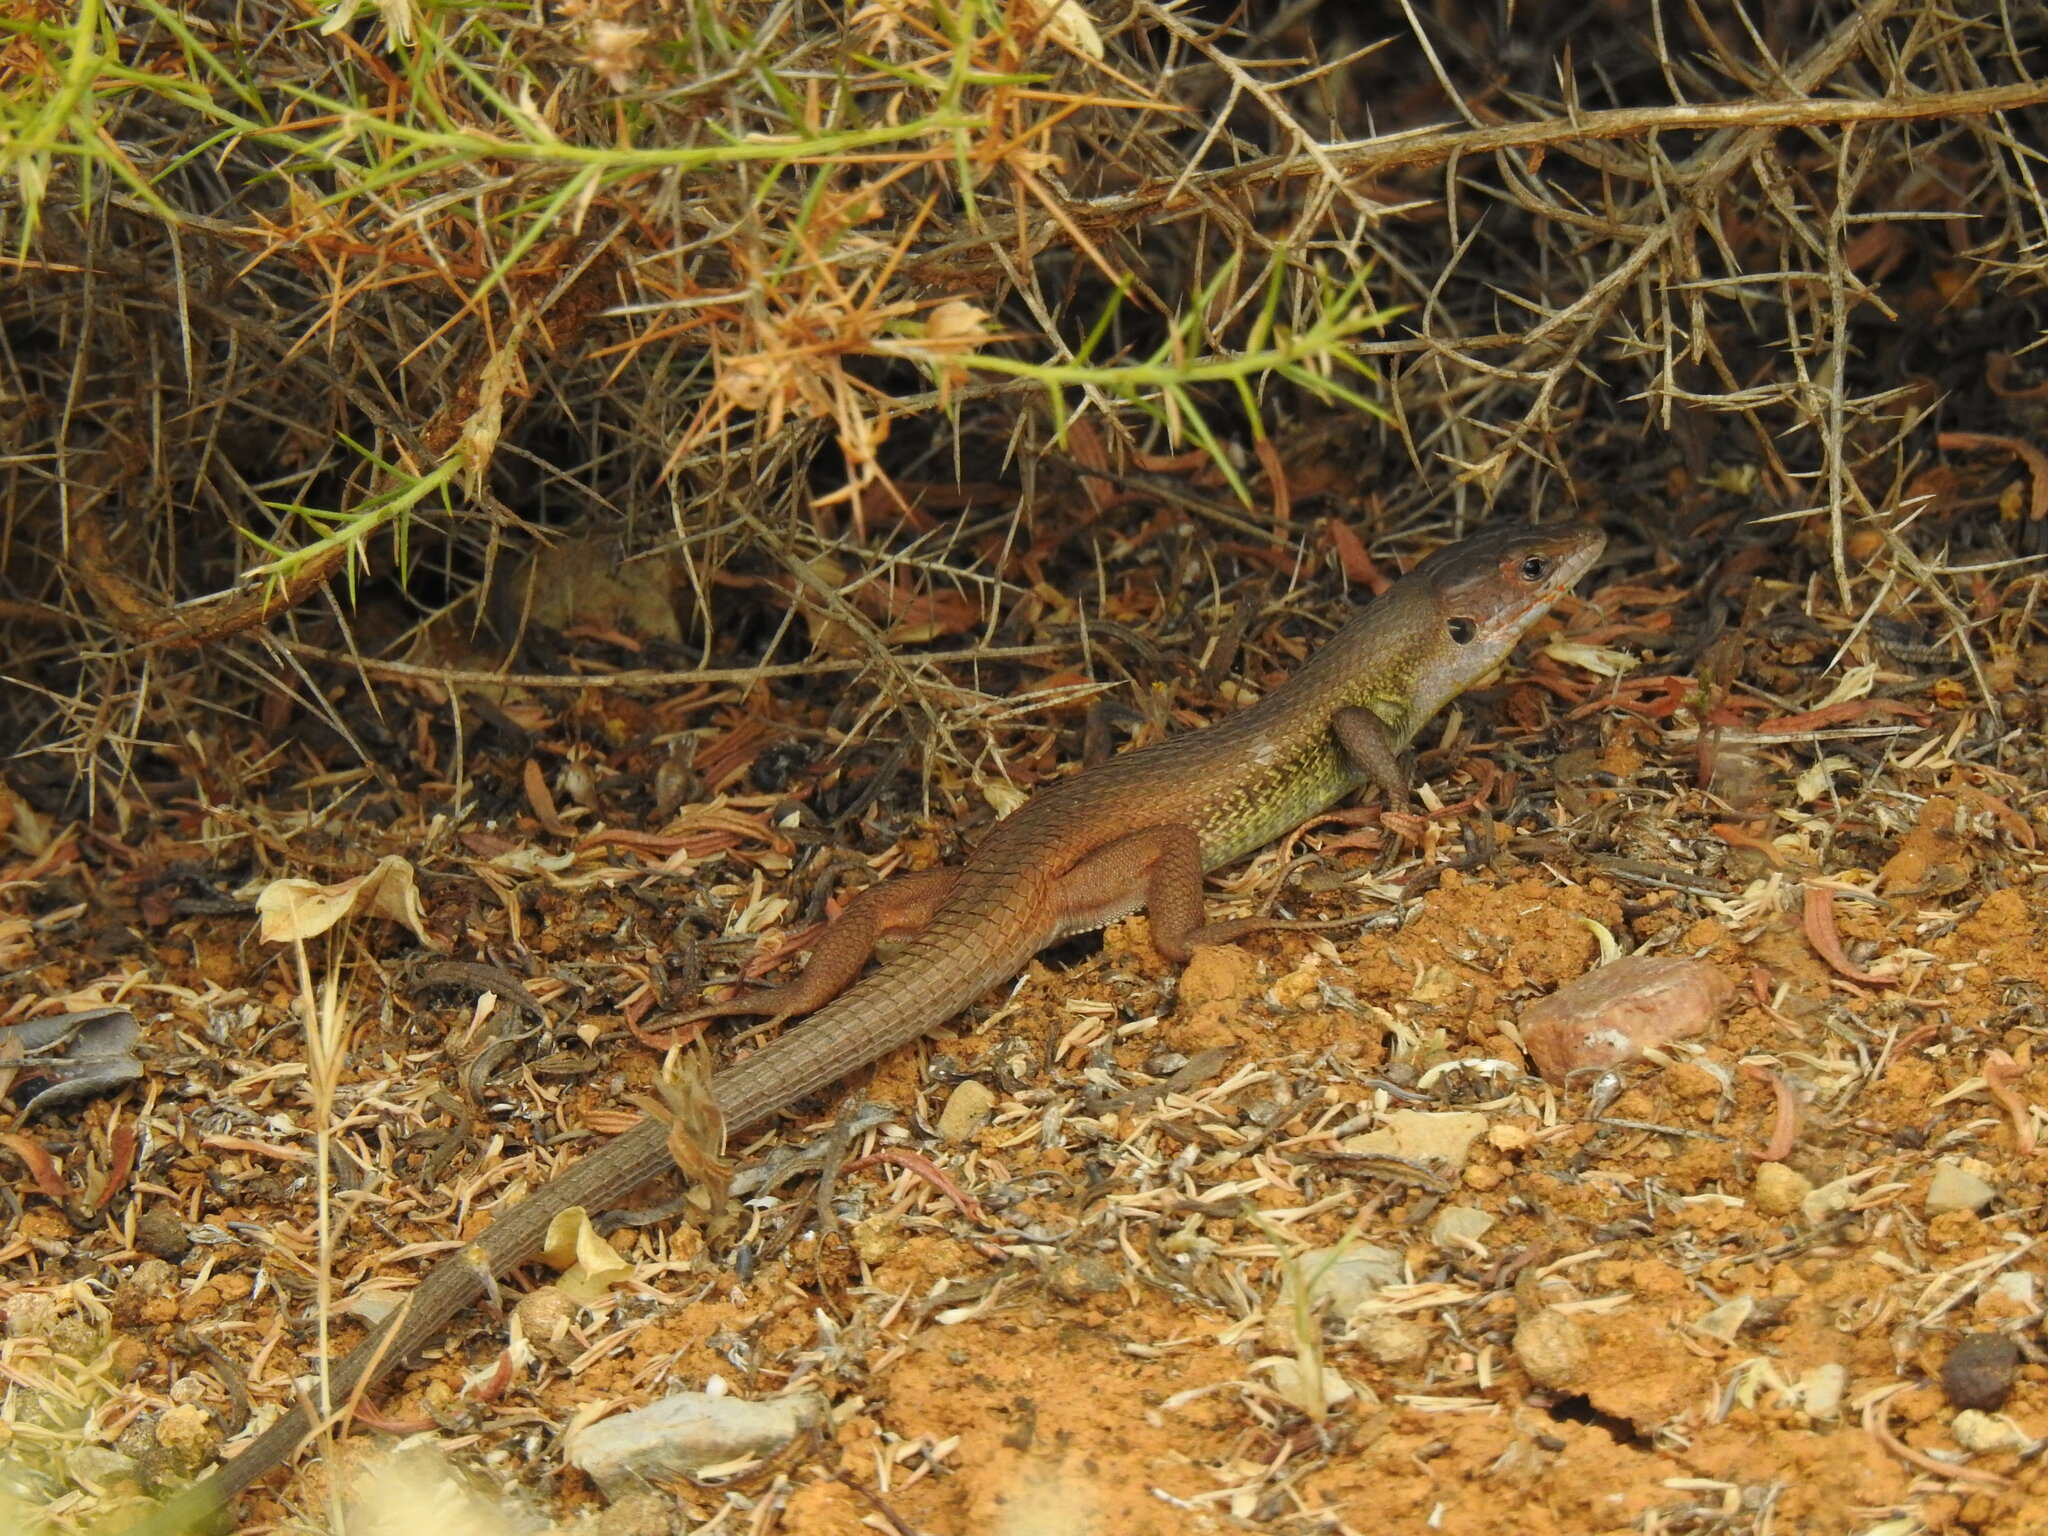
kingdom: Animalia
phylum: Chordata
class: Squamata
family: Lacertidae
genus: Psammodromus
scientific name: Psammodromus algirus
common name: Algerian psammodromus
